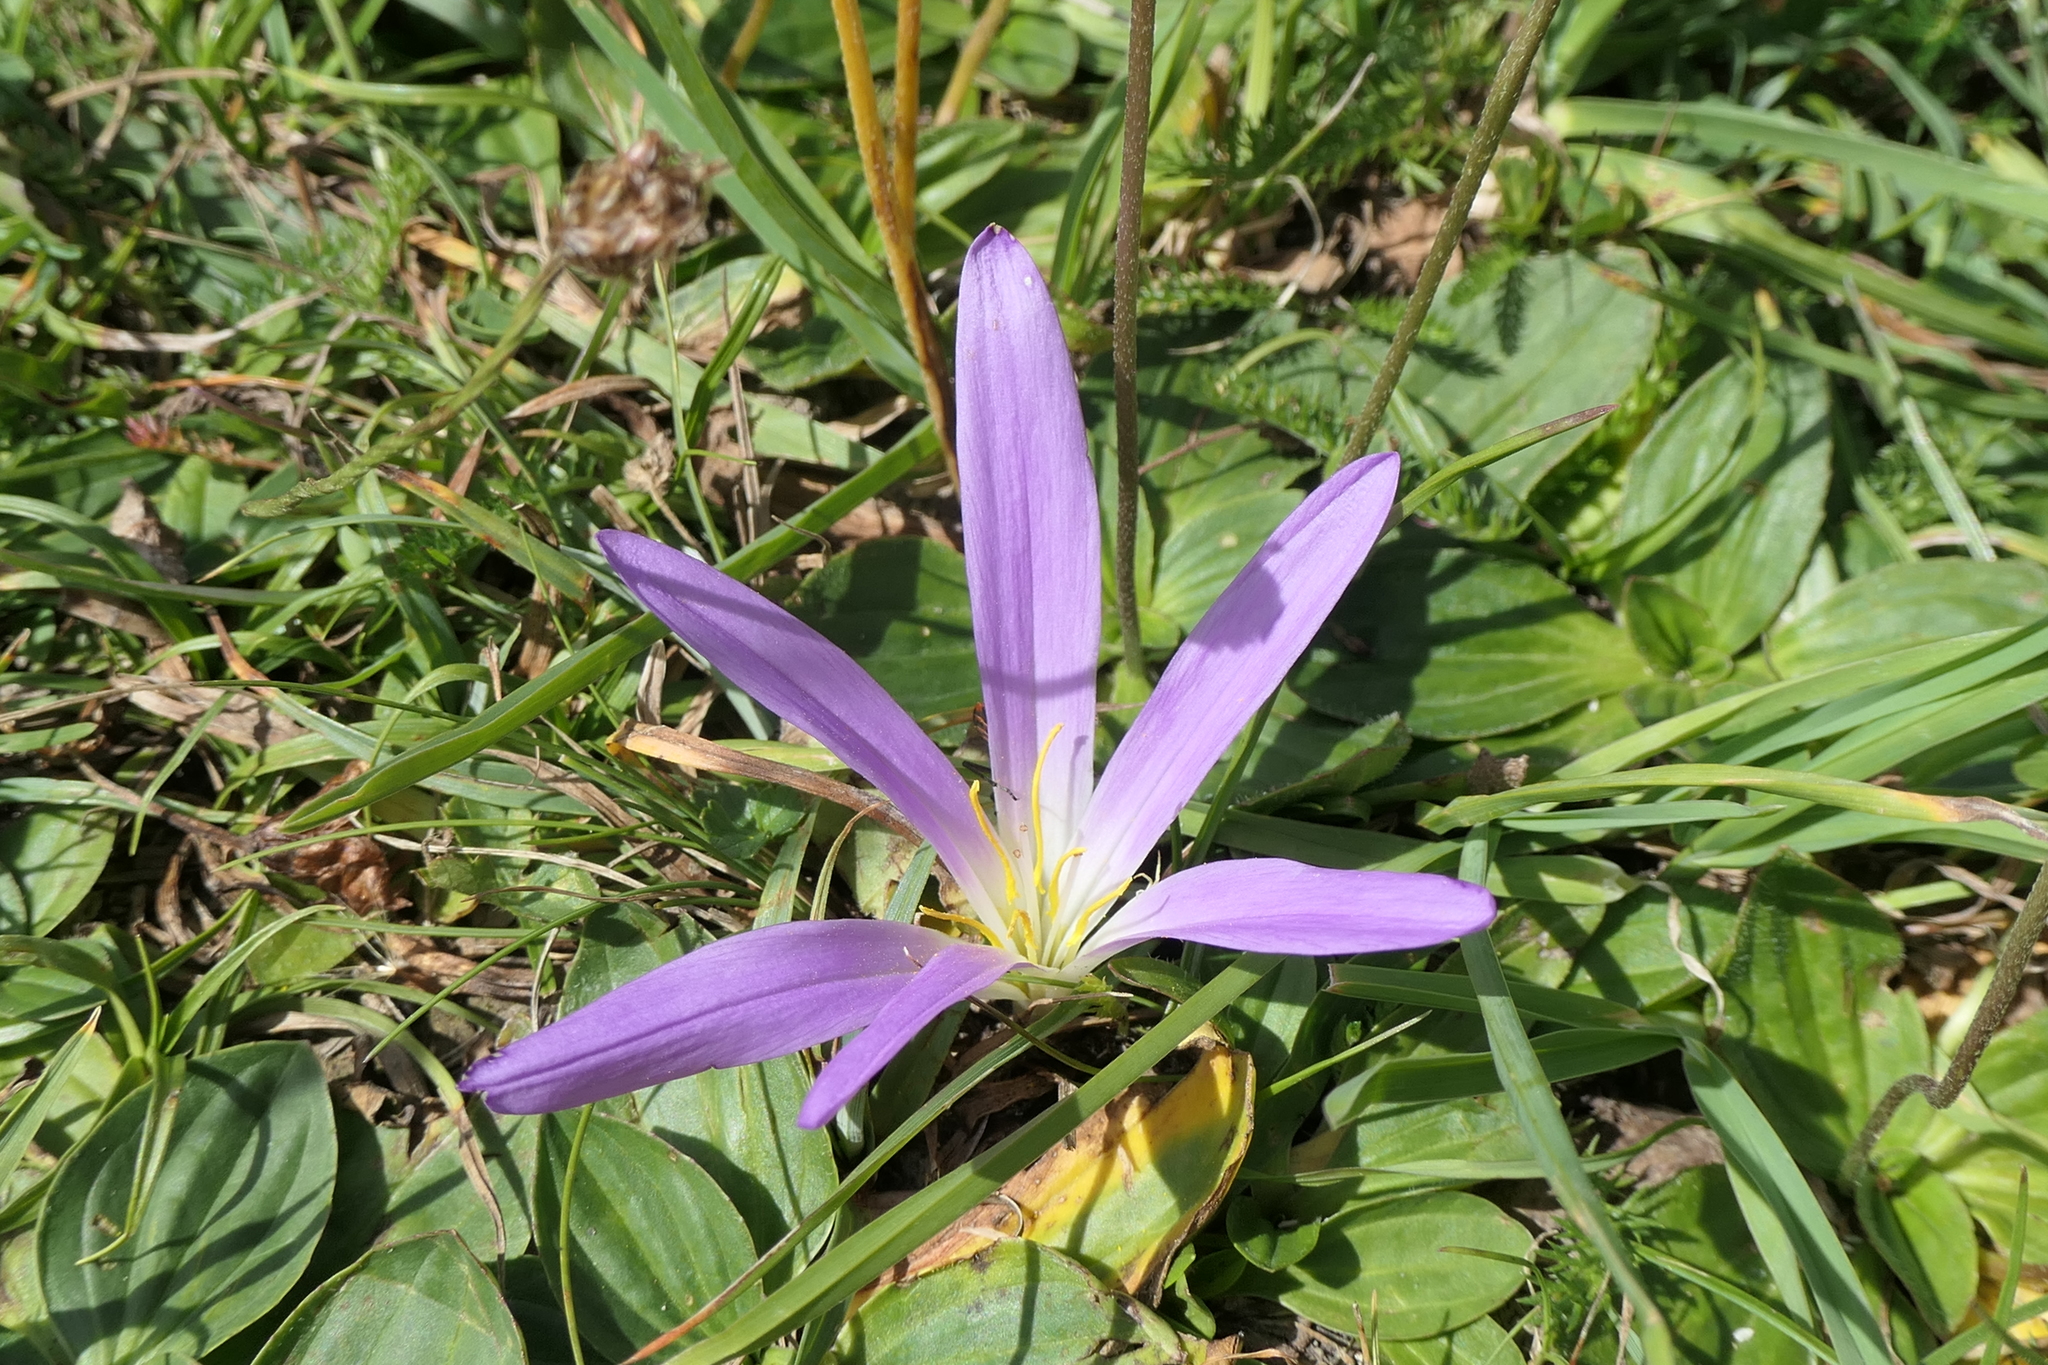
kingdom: Plantae
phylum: Tracheophyta
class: Liliopsida
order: Liliales
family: Colchicaceae
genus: Colchicum
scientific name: Colchicum montanum
